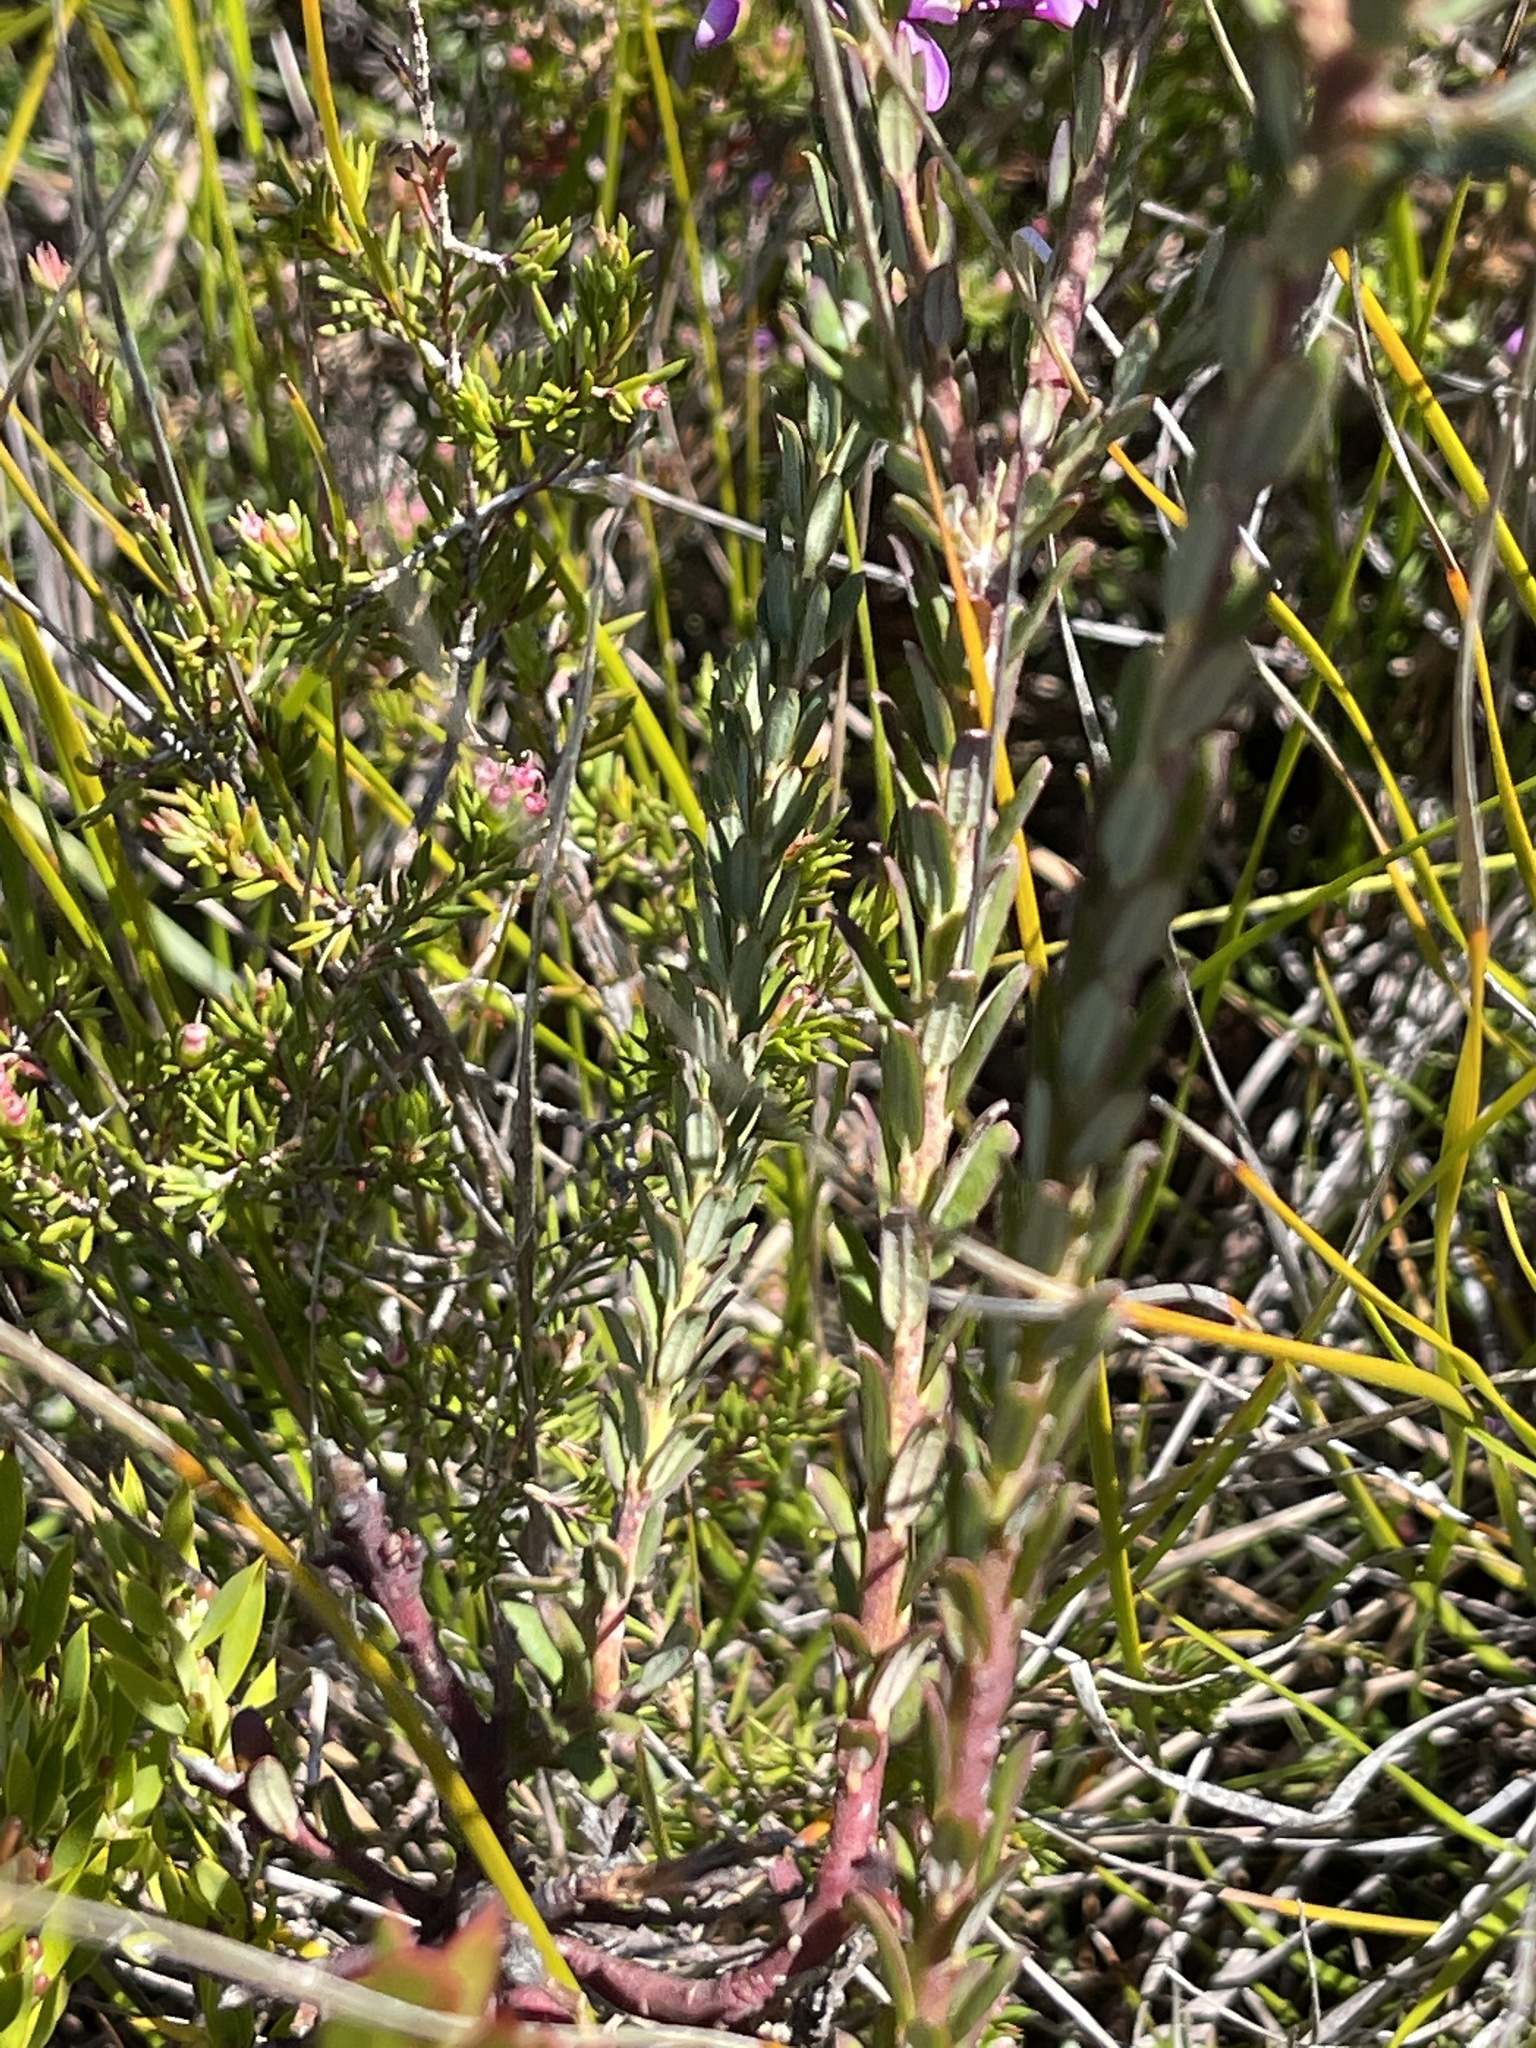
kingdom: Plantae
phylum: Tracheophyta
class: Magnoliopsida
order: Fabales
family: Polygalaceae
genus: Comesperma
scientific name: Comesperma ericinum
